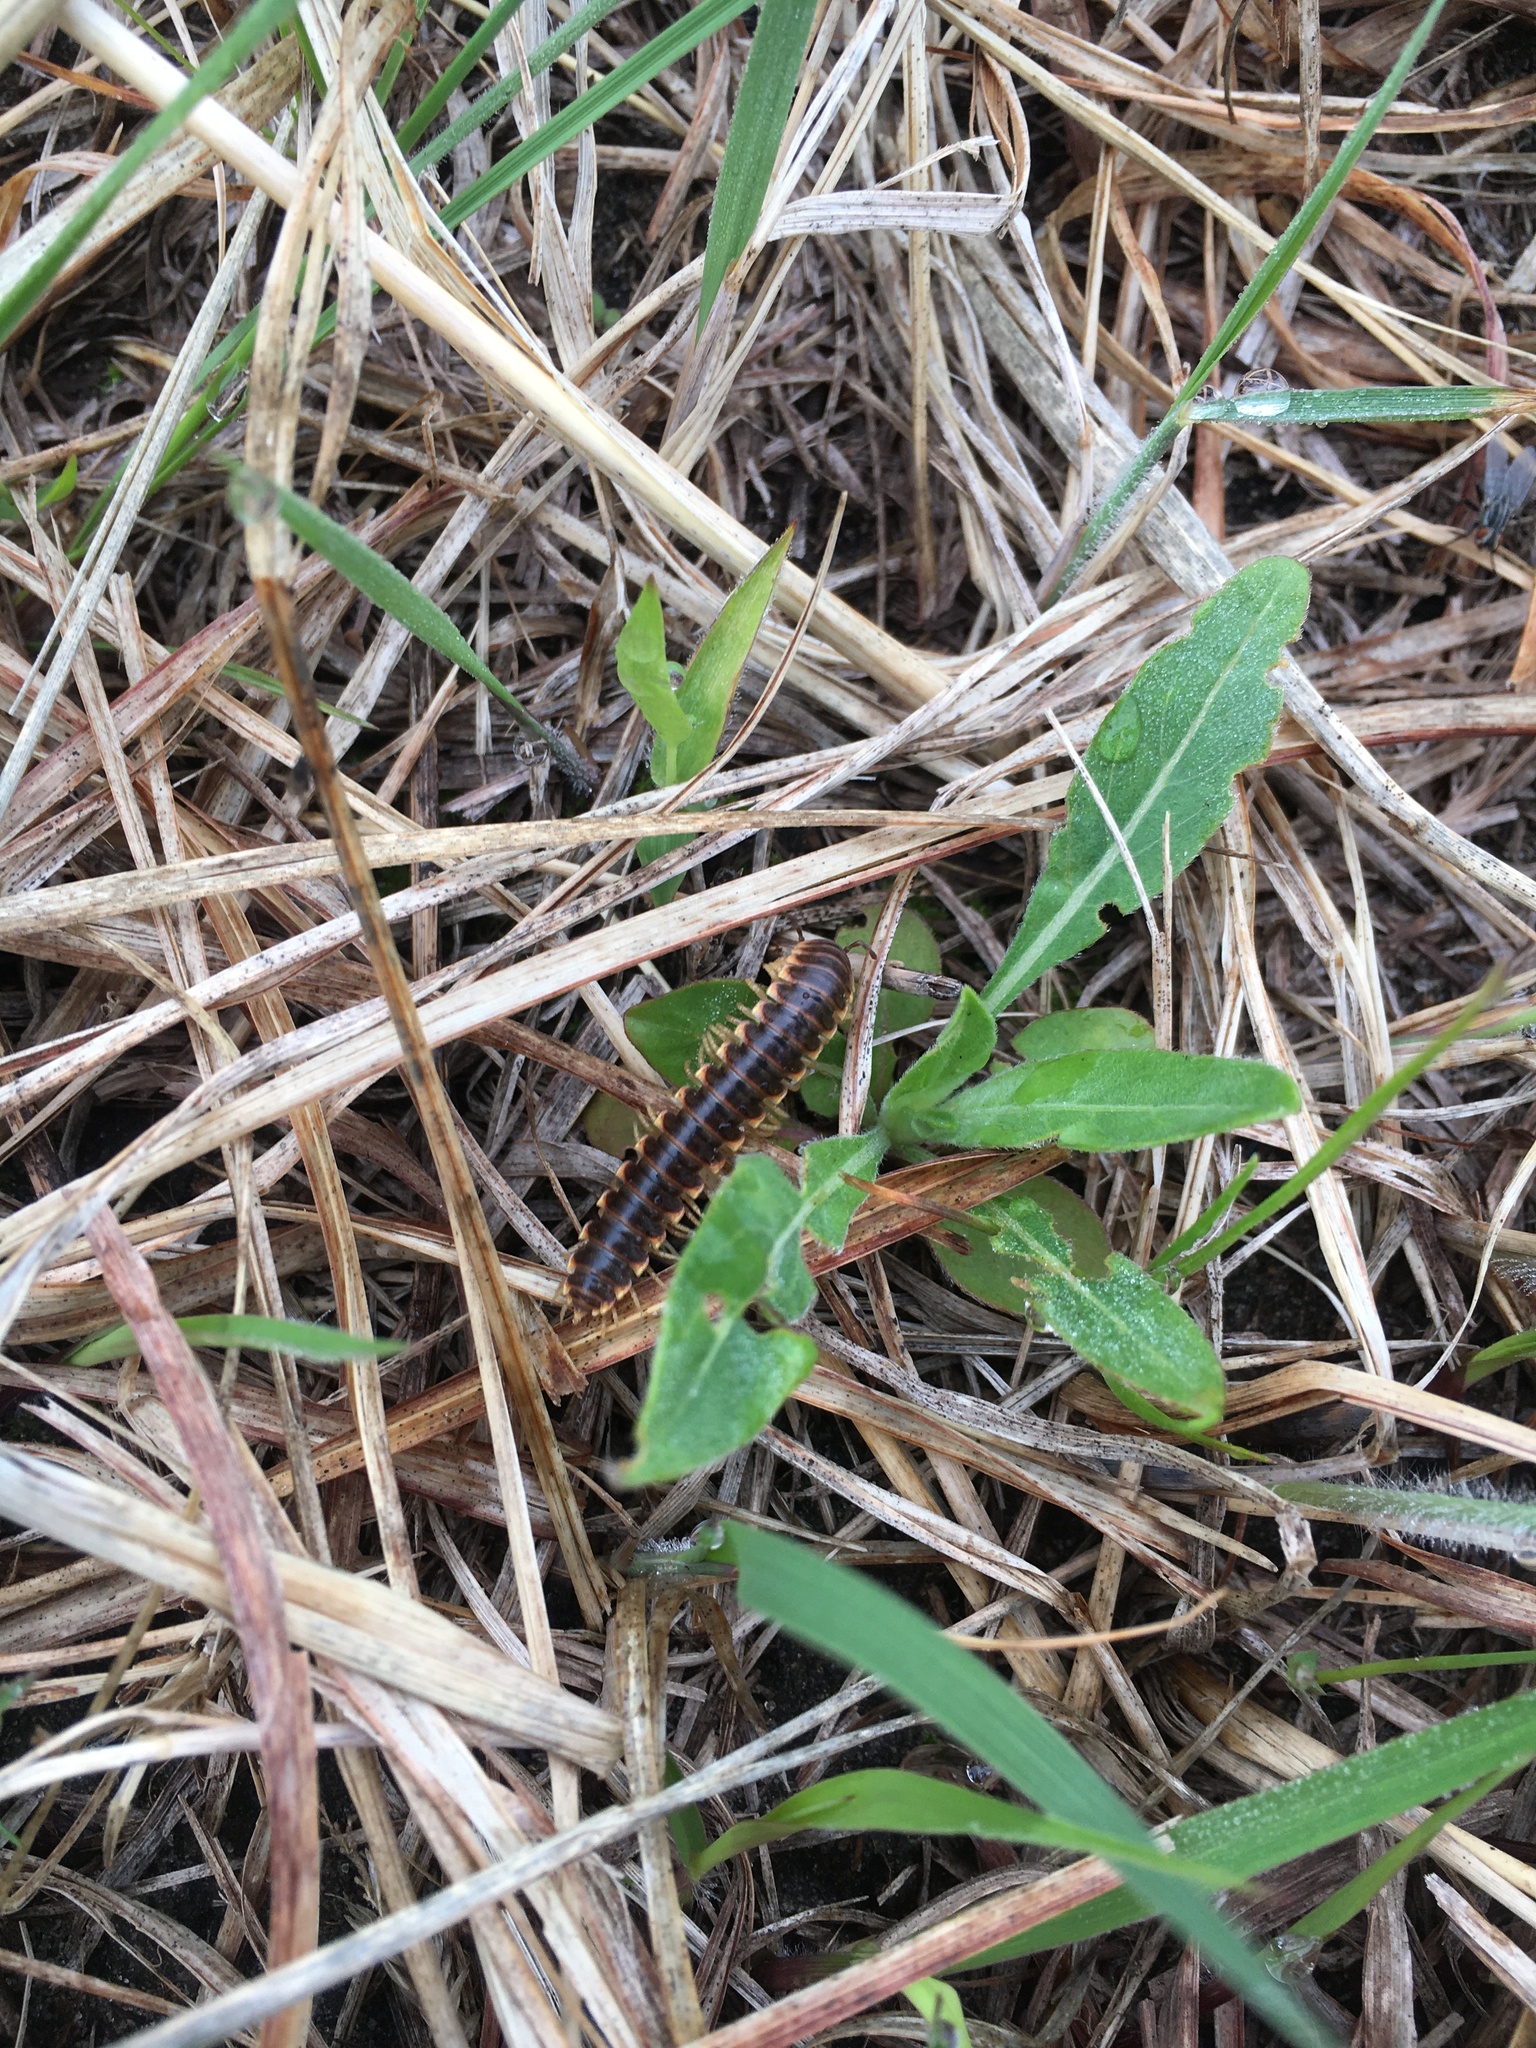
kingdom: Animalia
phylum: Arthropoda
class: Diplopoda
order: Polydesmida
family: Xystodesmidae
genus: Pleuroloma
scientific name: Pleuroloma flavipes
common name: Yellow-legged pleuroloma
